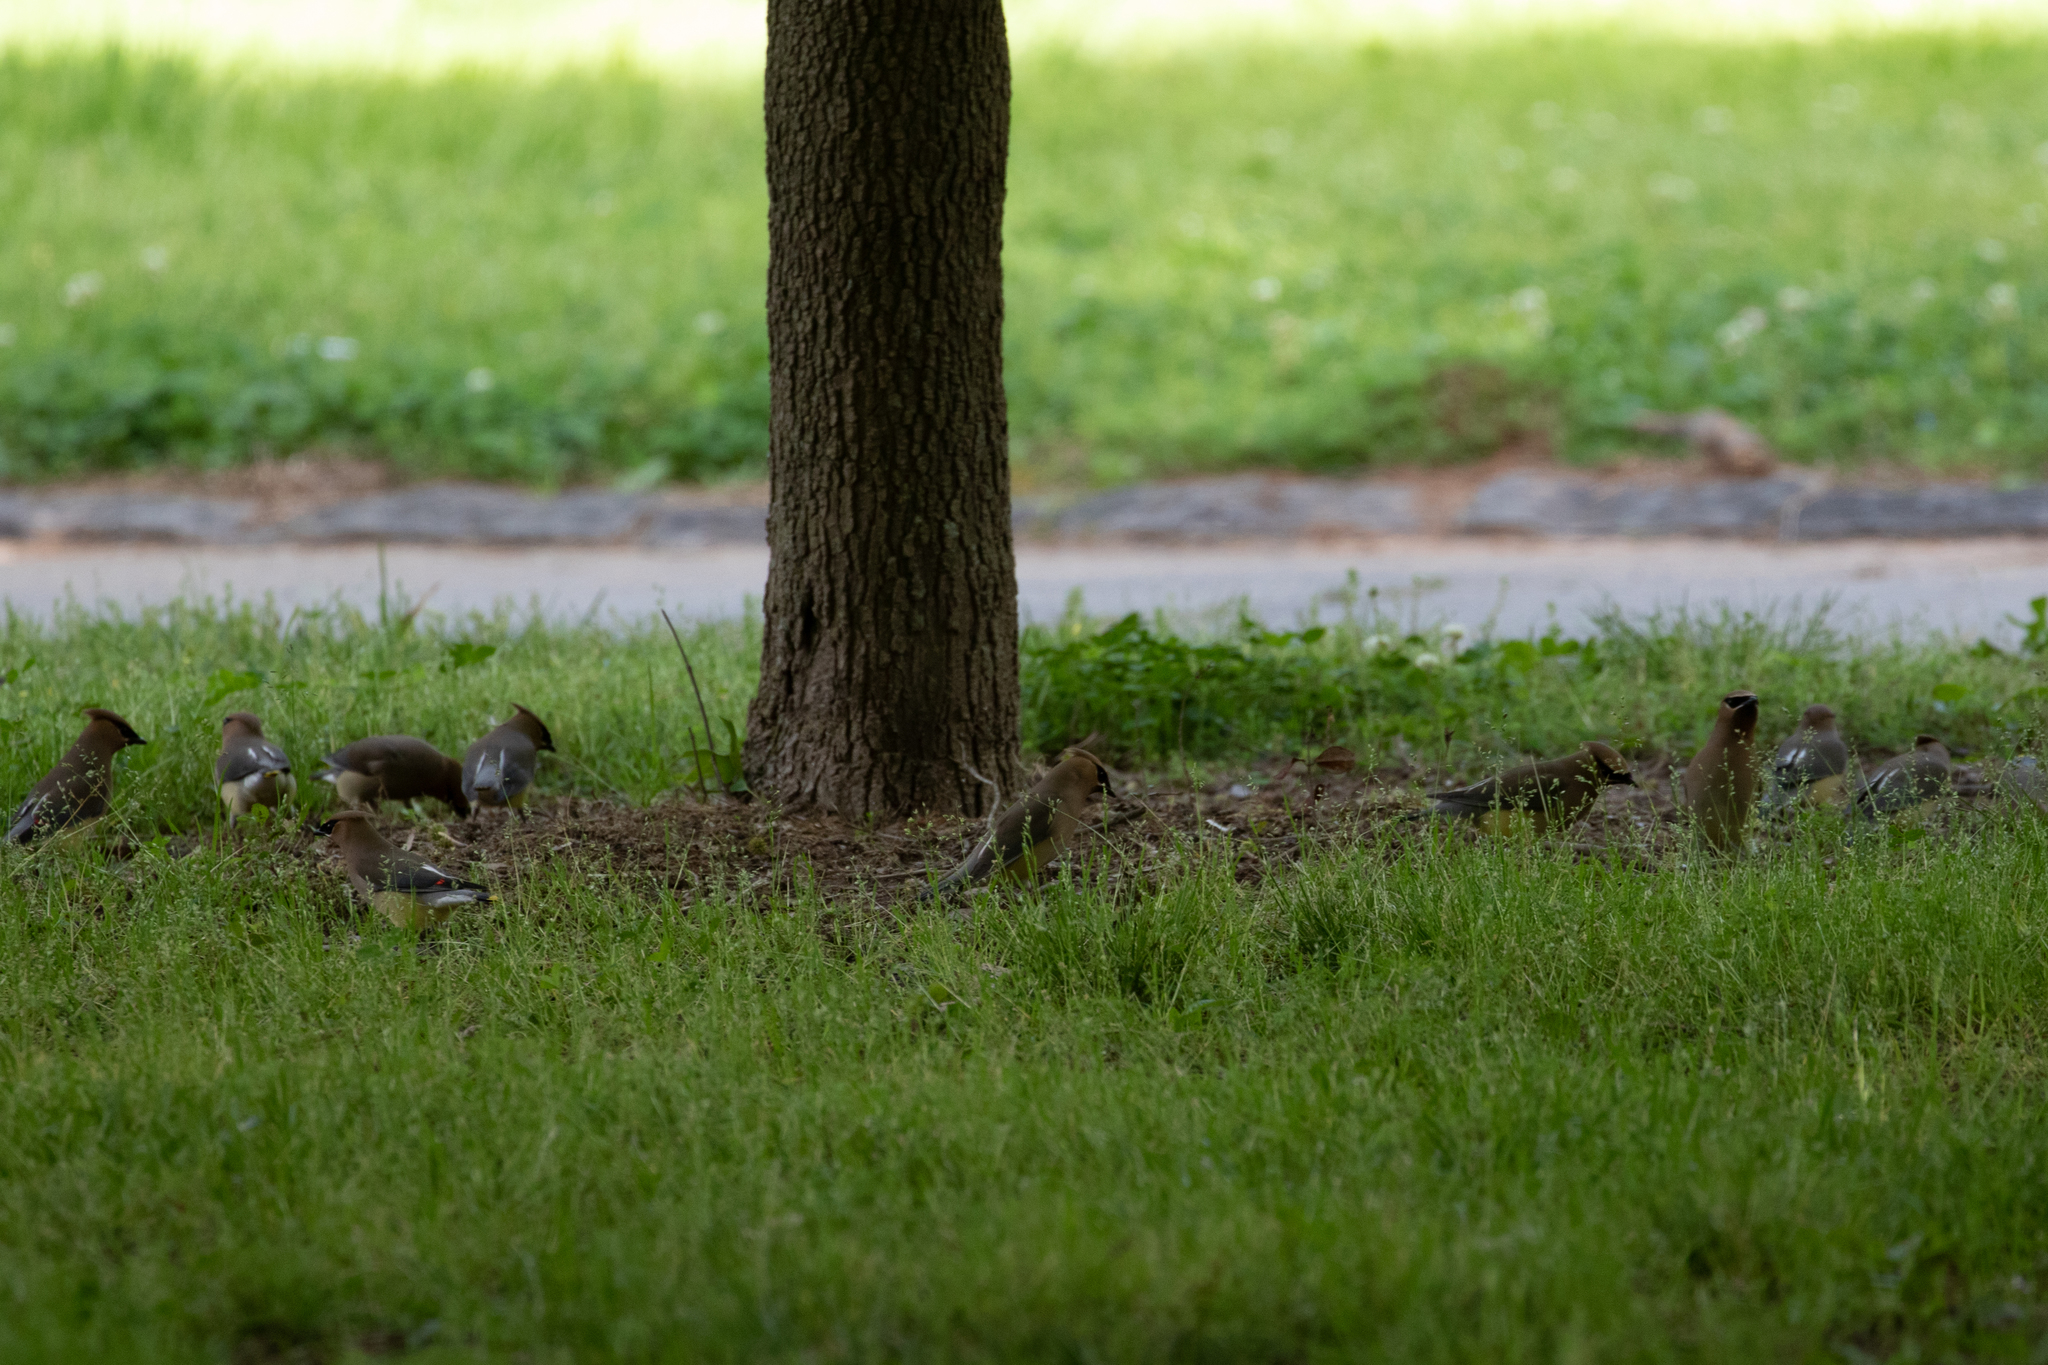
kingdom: Animalia
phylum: Chordata
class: Aves
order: Passeriformes
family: Bombycillidae
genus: Bombycilla
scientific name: Bombycilla cedrorum
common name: Cedar waxwing
